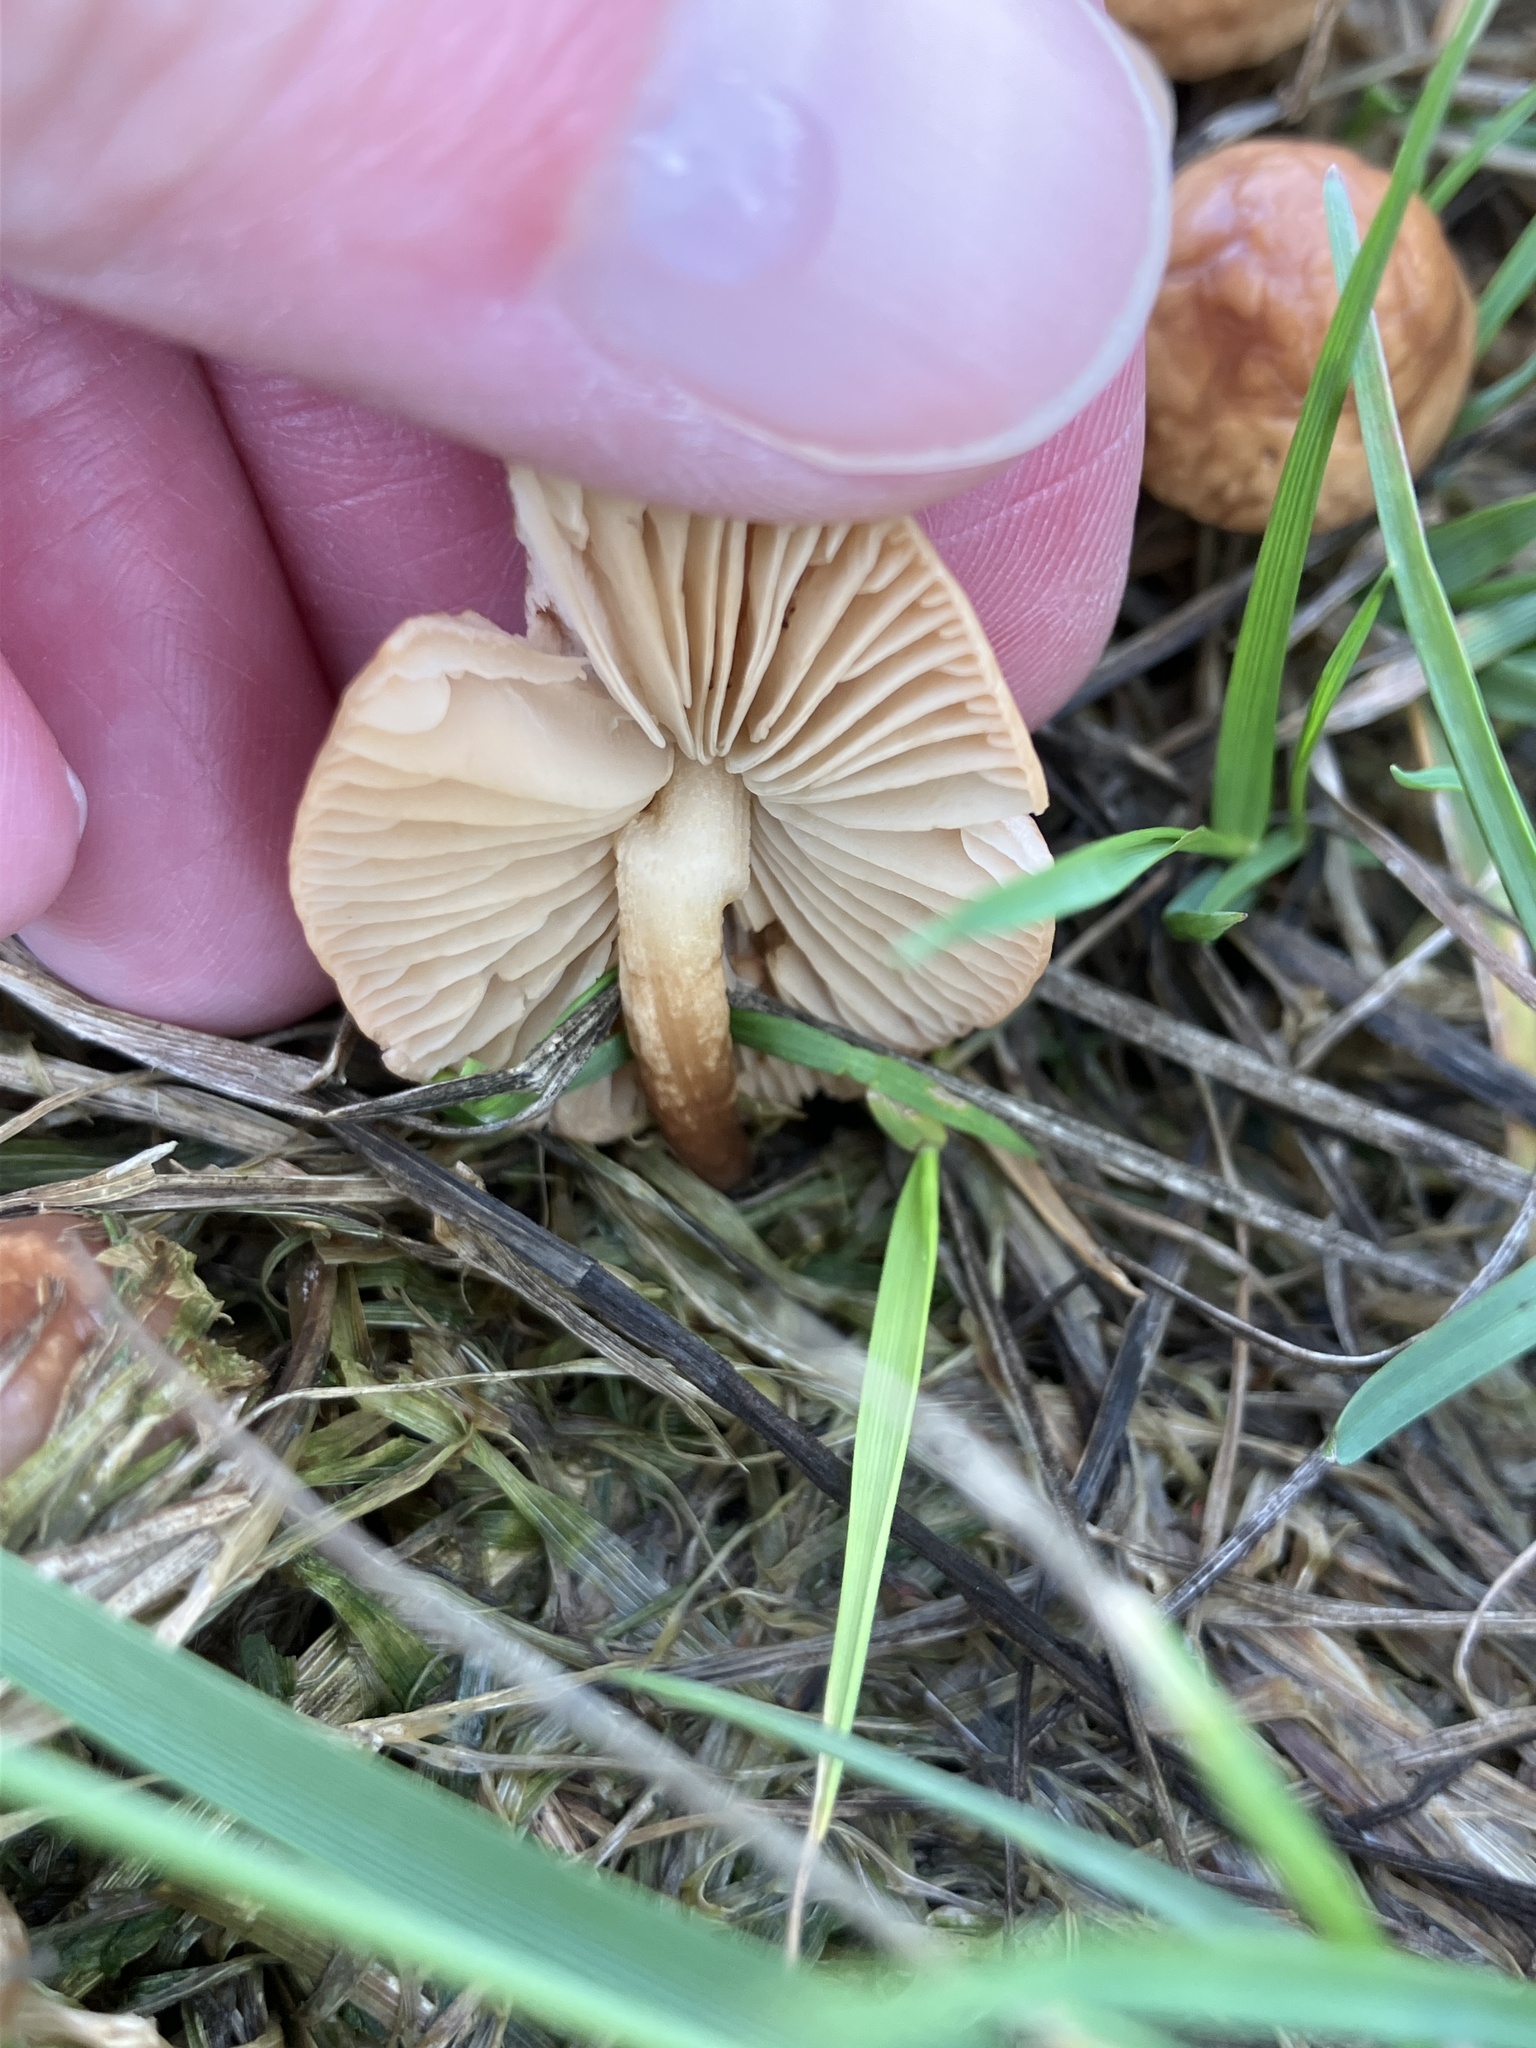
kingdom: Fungi
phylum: Basidiomycota
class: Agaricomycetes
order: Agaricales
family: Marasmiaceae
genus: Marasmius
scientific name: Marasmius oreades
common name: Fairy ring champignon
